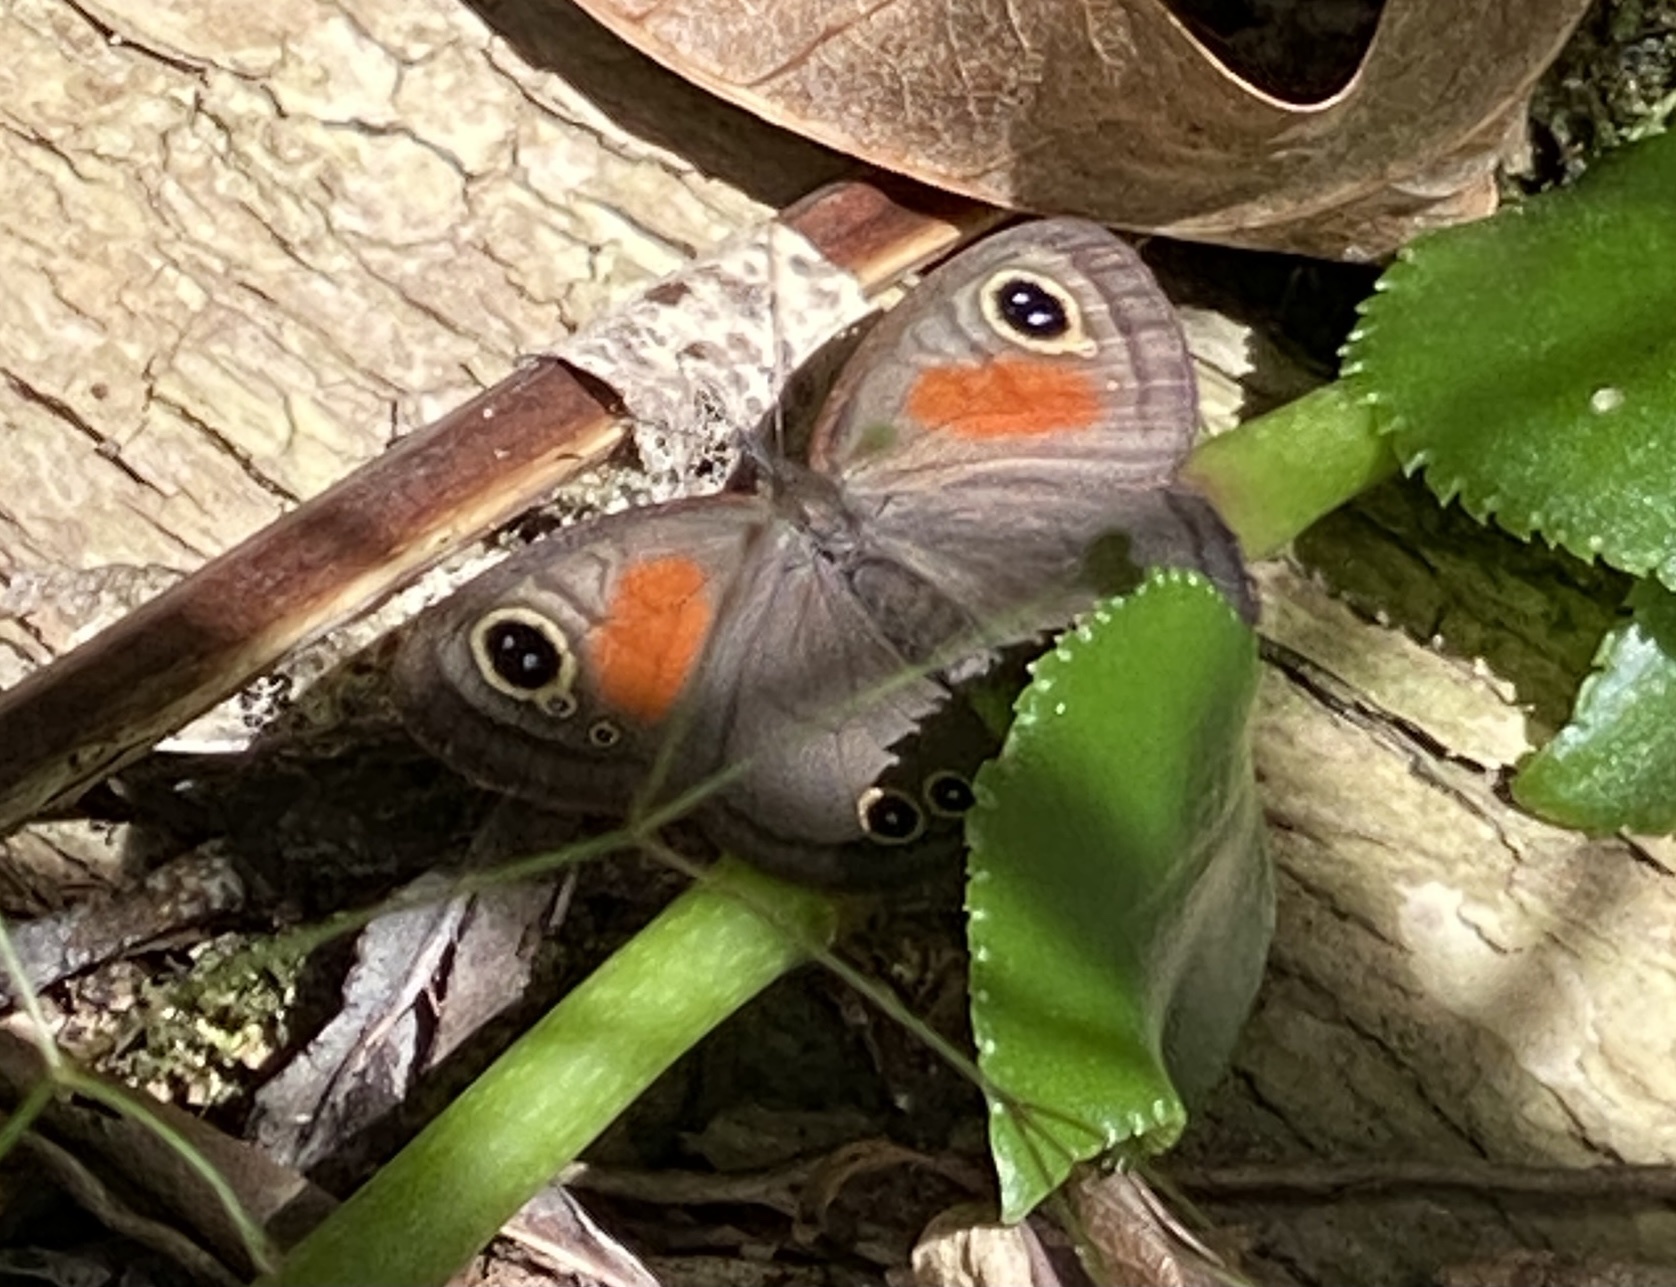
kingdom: Animalia
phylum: Arthropoda
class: Insecta
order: Lepidoptera
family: Nymphalidae
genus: Cassionympha
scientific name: Cassionympha cassius
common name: Rainforest brown
